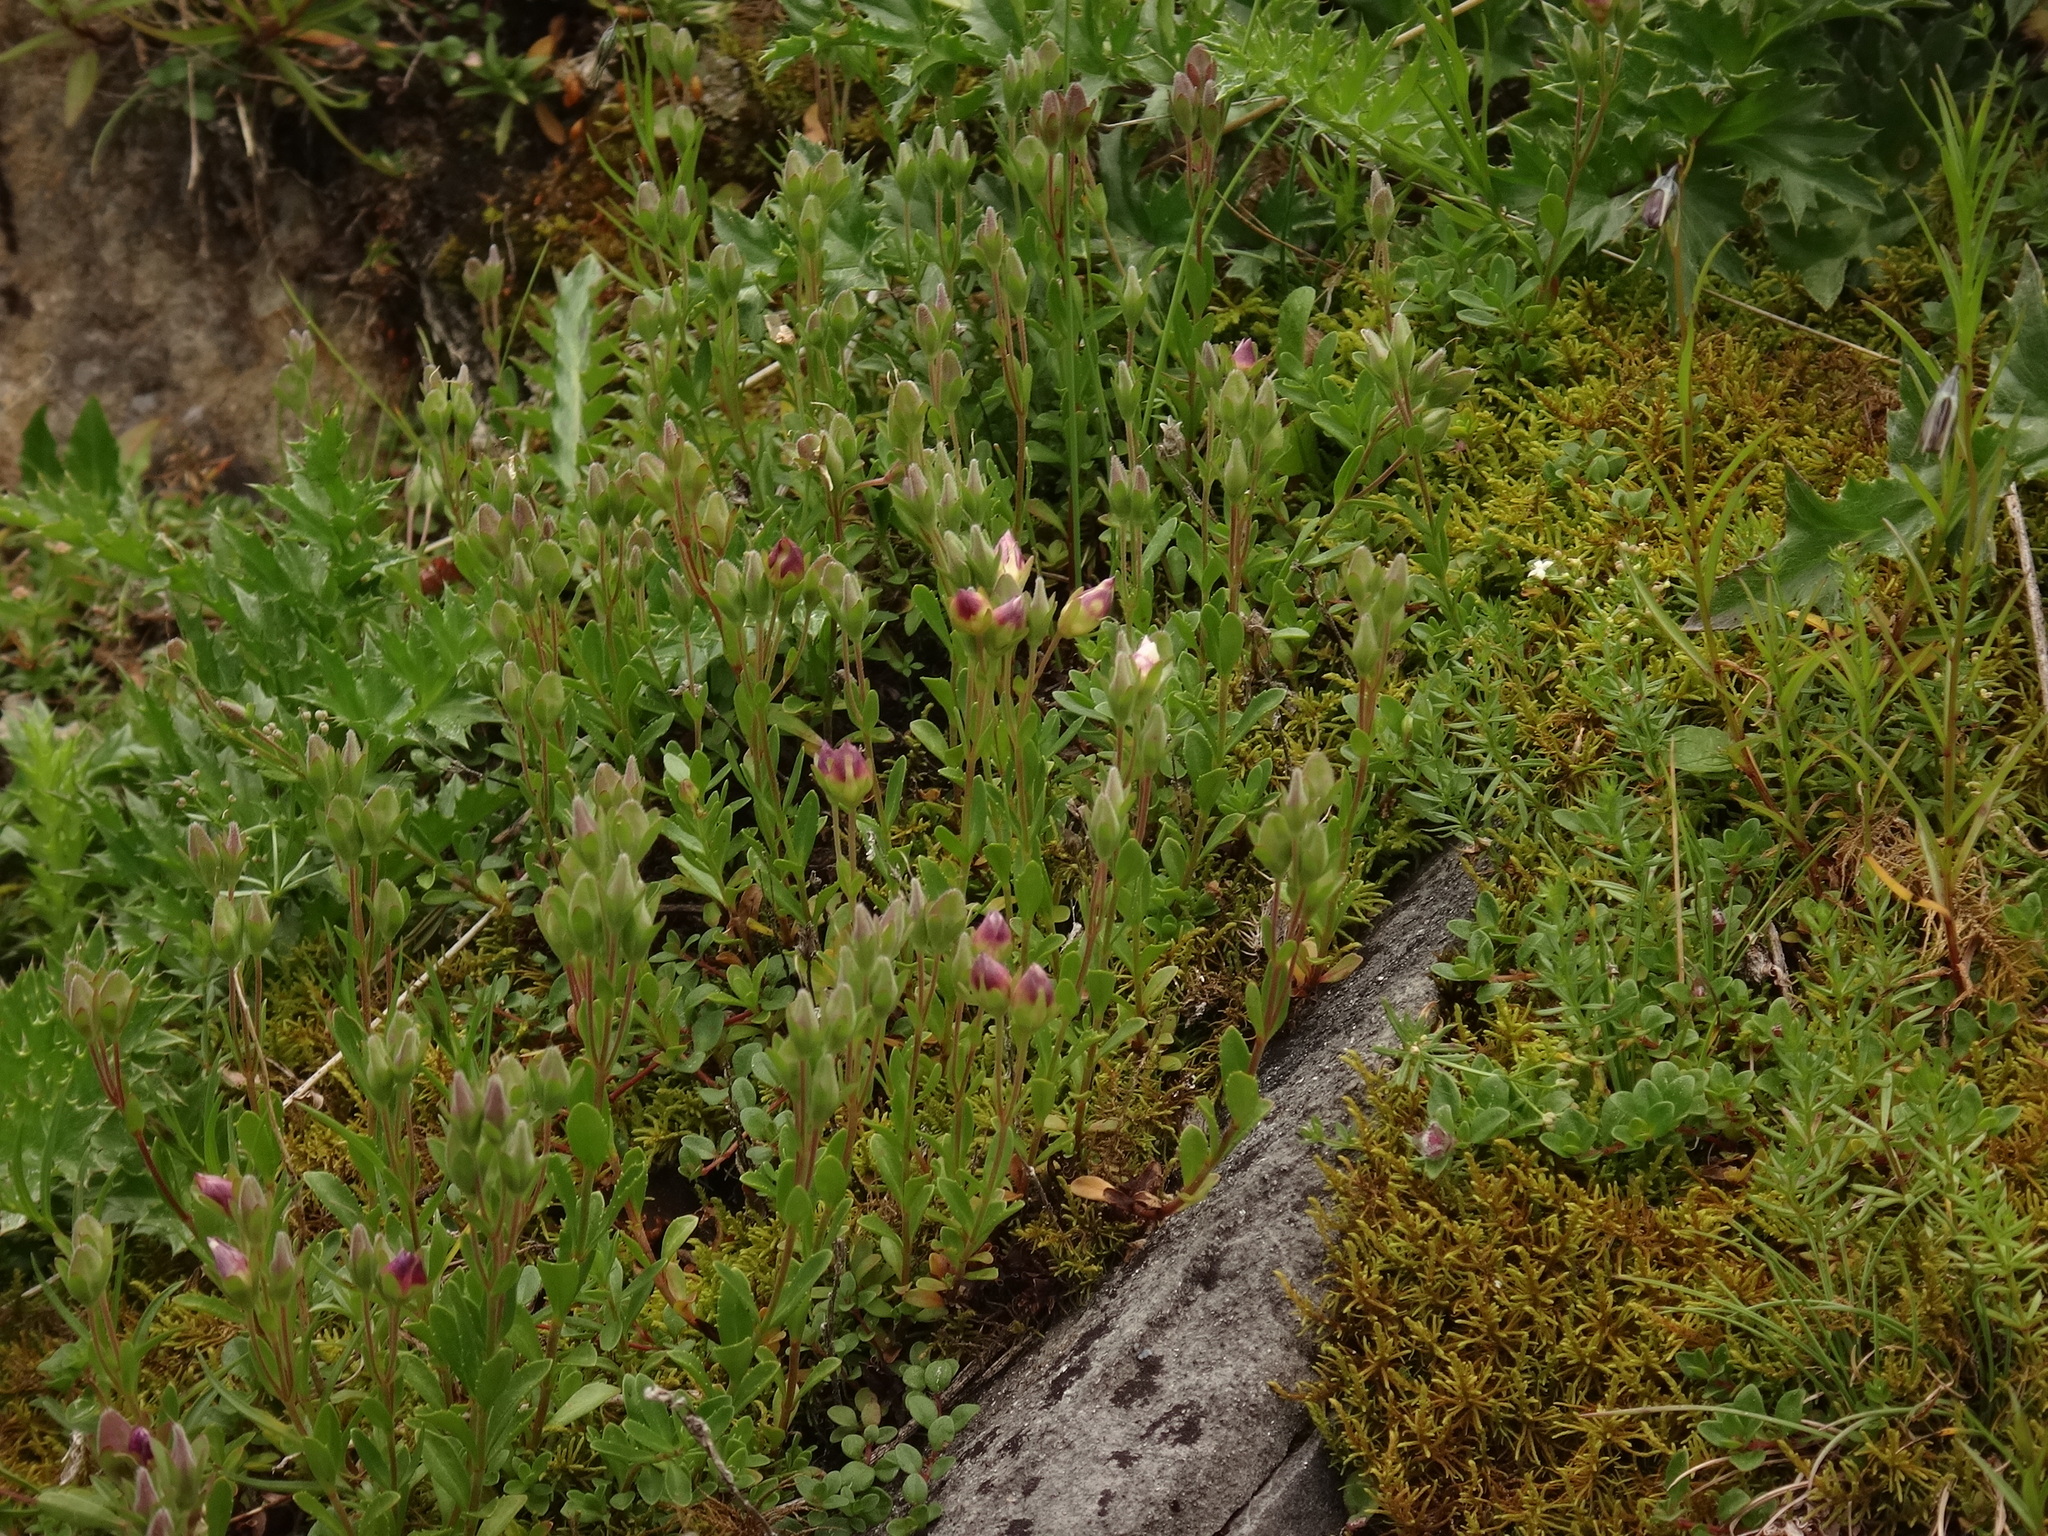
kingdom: Plantae
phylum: Tracheophyta
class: Magnoliopsida
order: Lamiales
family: Plantaginaceae
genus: Veronica
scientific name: Veronica fruticans
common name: Rock speedwell
